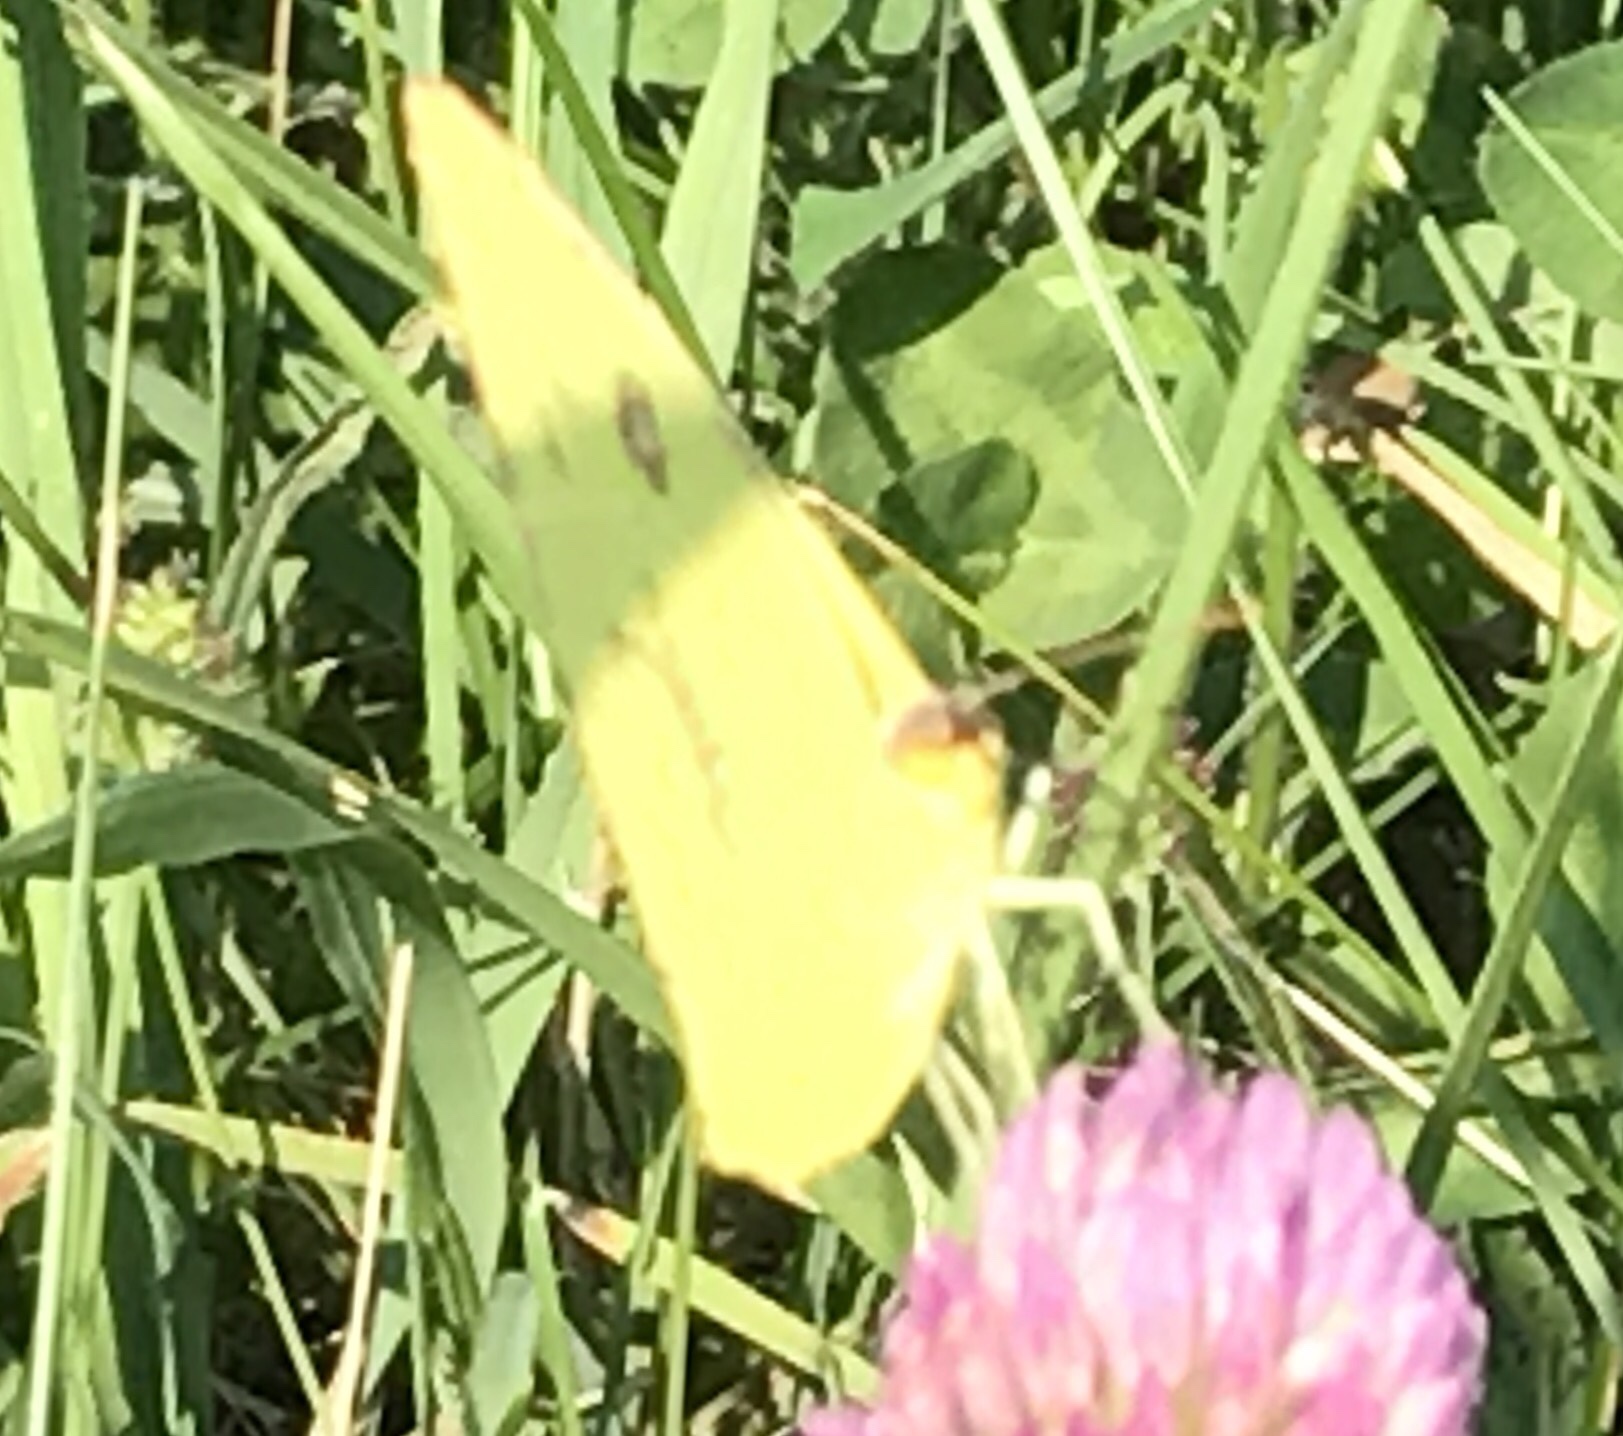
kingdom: Animalia
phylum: Arthropoda
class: Insecta
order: Lepidoptera
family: Pieridae
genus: Phoebis
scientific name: Phoebis sennae
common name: Cloudless sulphur
